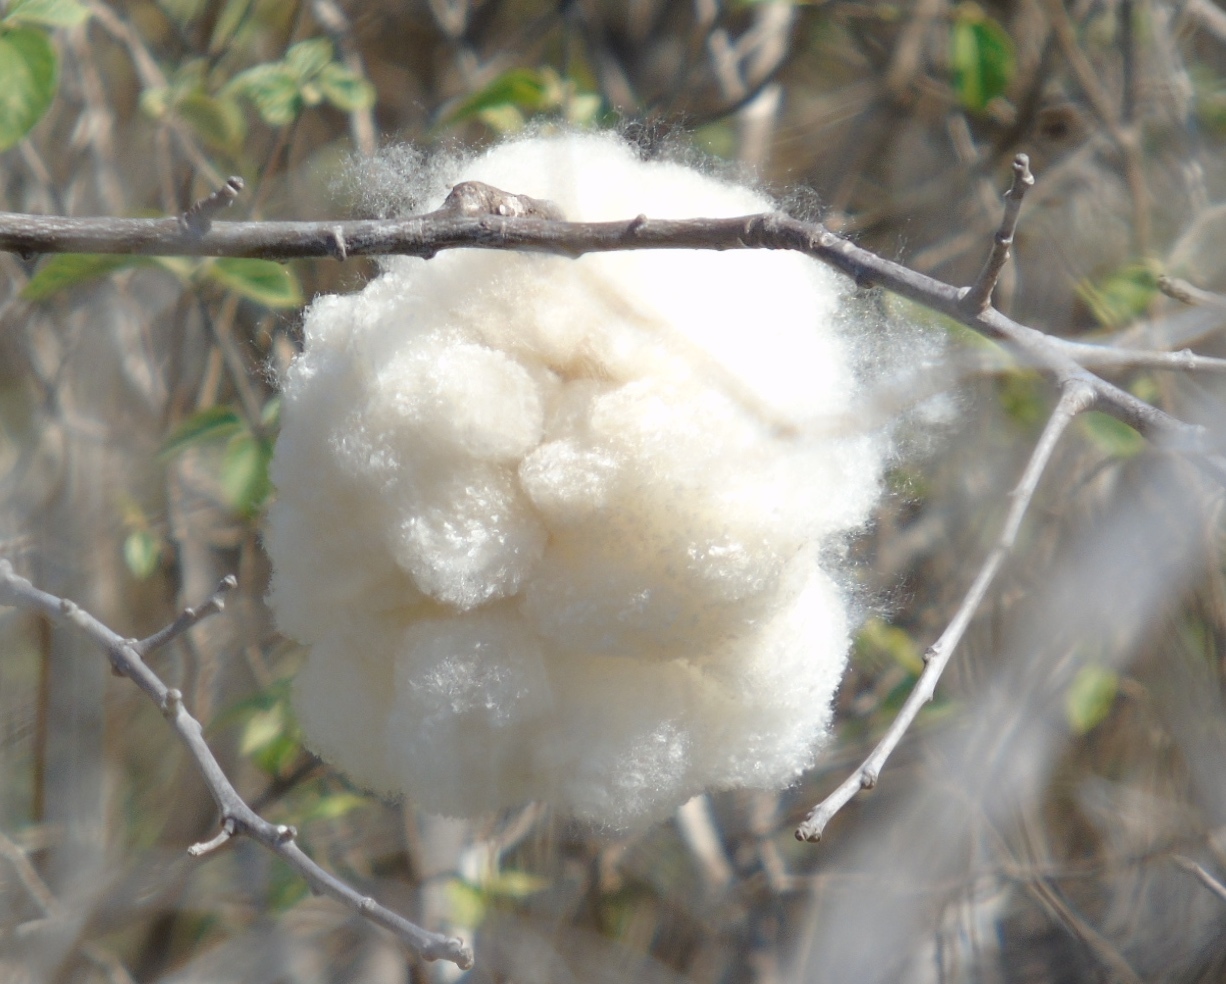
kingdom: Plantae
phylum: Tracheophyta
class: Magnoliopsida
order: Malvales
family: Malvaceae
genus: Ceiba
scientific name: Ceiba aesculifolia
